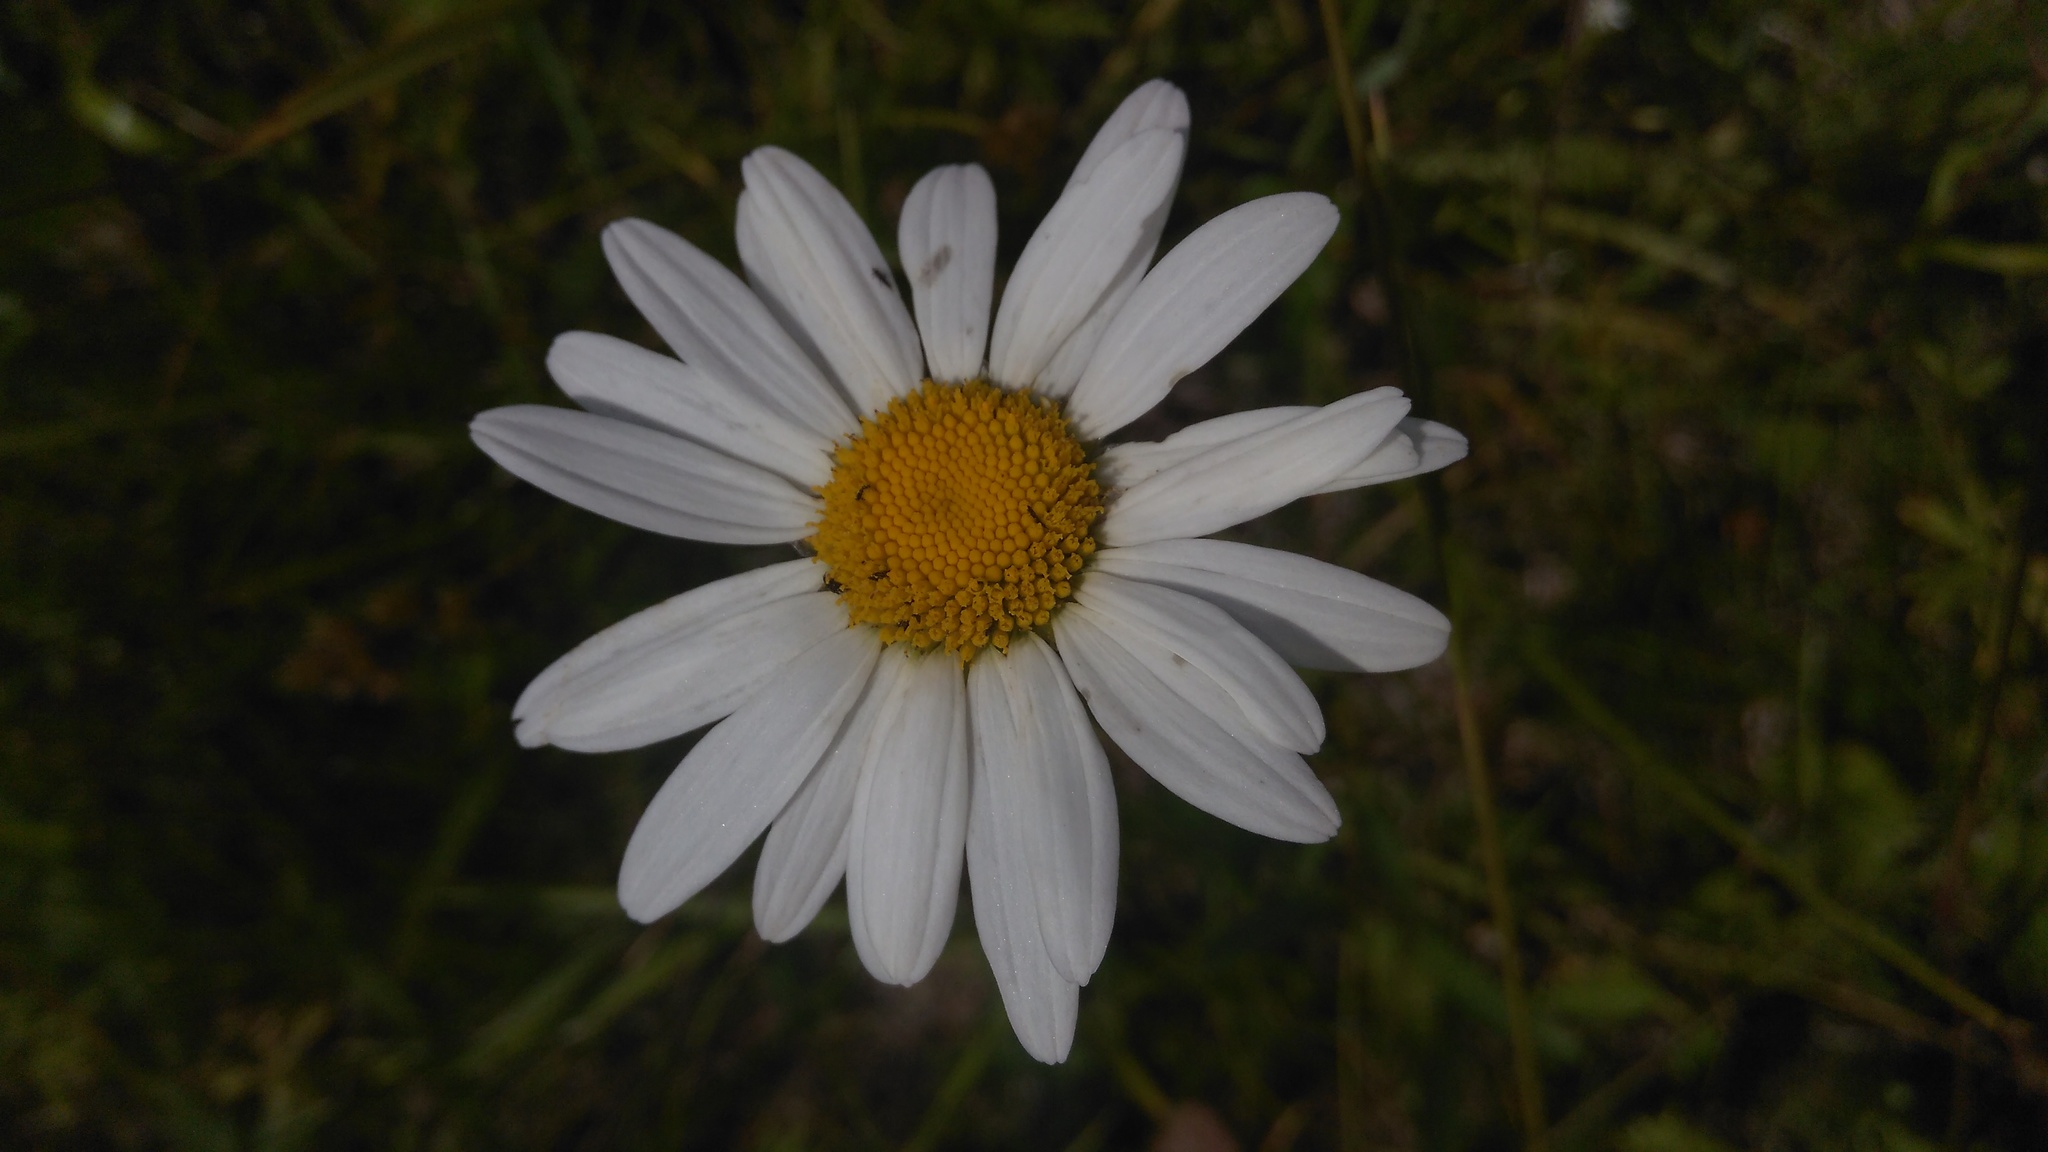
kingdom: Plantae
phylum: Tracheophyta
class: Magnoliopsida
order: Asterales
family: Asteraceae
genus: Leucanthemum
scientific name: Leucanthemum vulgare
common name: Oxeye daisy
